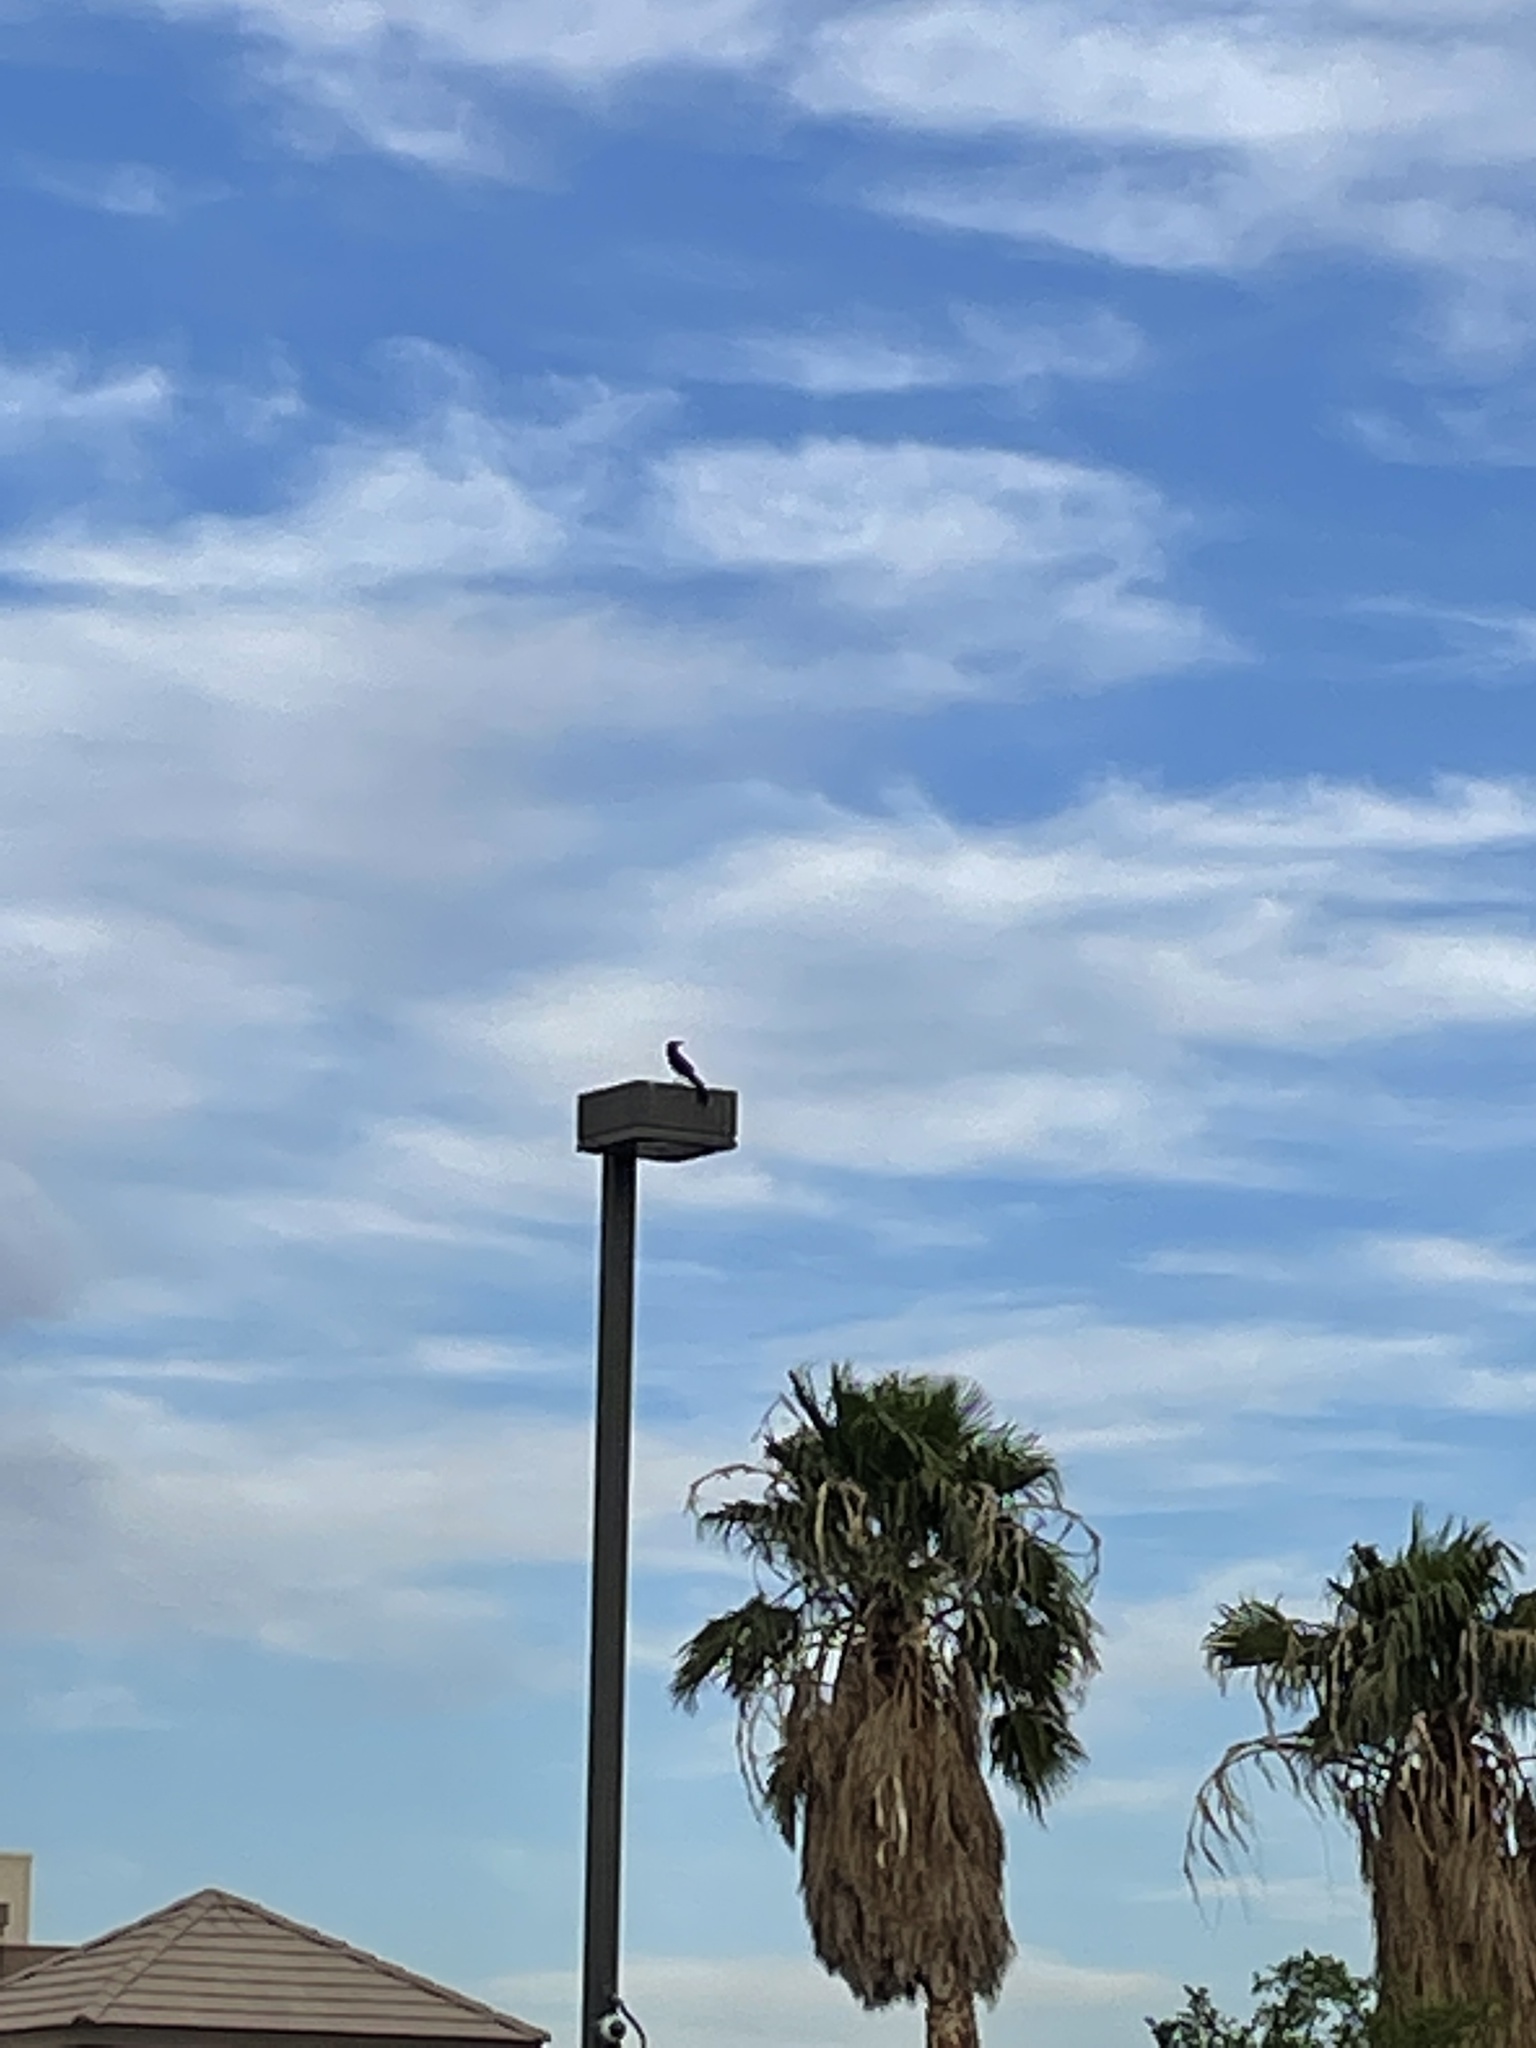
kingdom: Animalia
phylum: Chordata
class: Aves
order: Passeriformes
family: Icteridae
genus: Quiscalus
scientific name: Quiscalus mexicanus
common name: Great-tailed grackle
